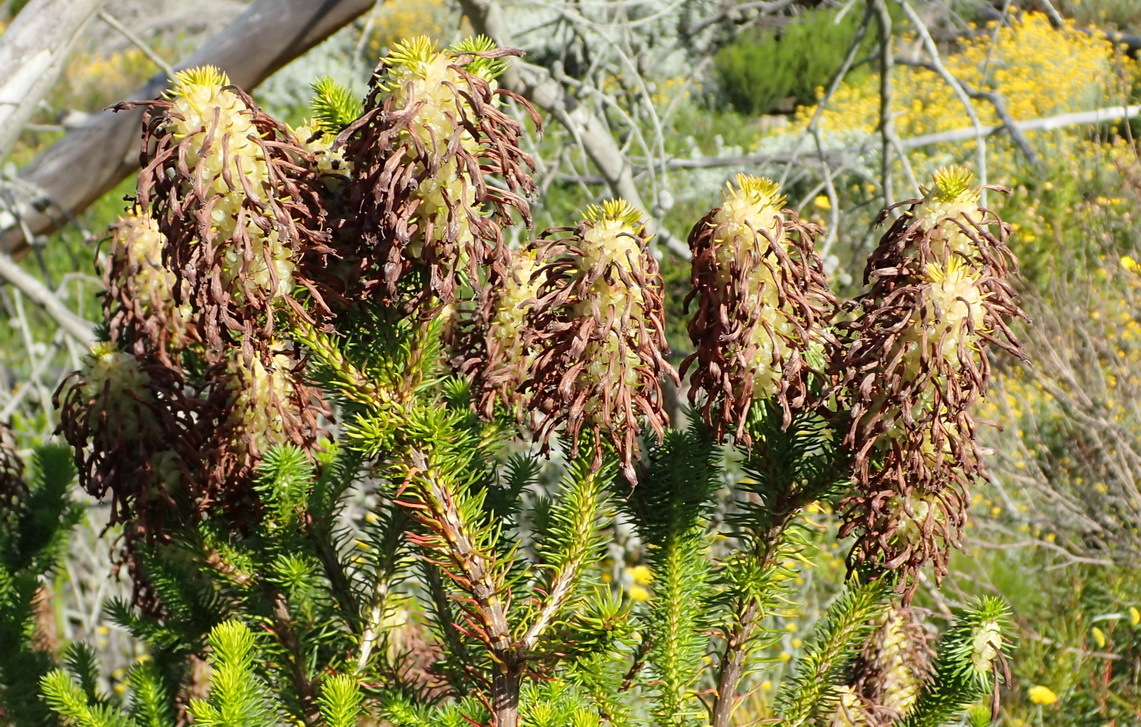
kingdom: Plantae
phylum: Tracheophyta
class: Magnoliopsida
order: Ericales
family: Ericaceae
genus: Erica
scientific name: Erica sessiliflora
